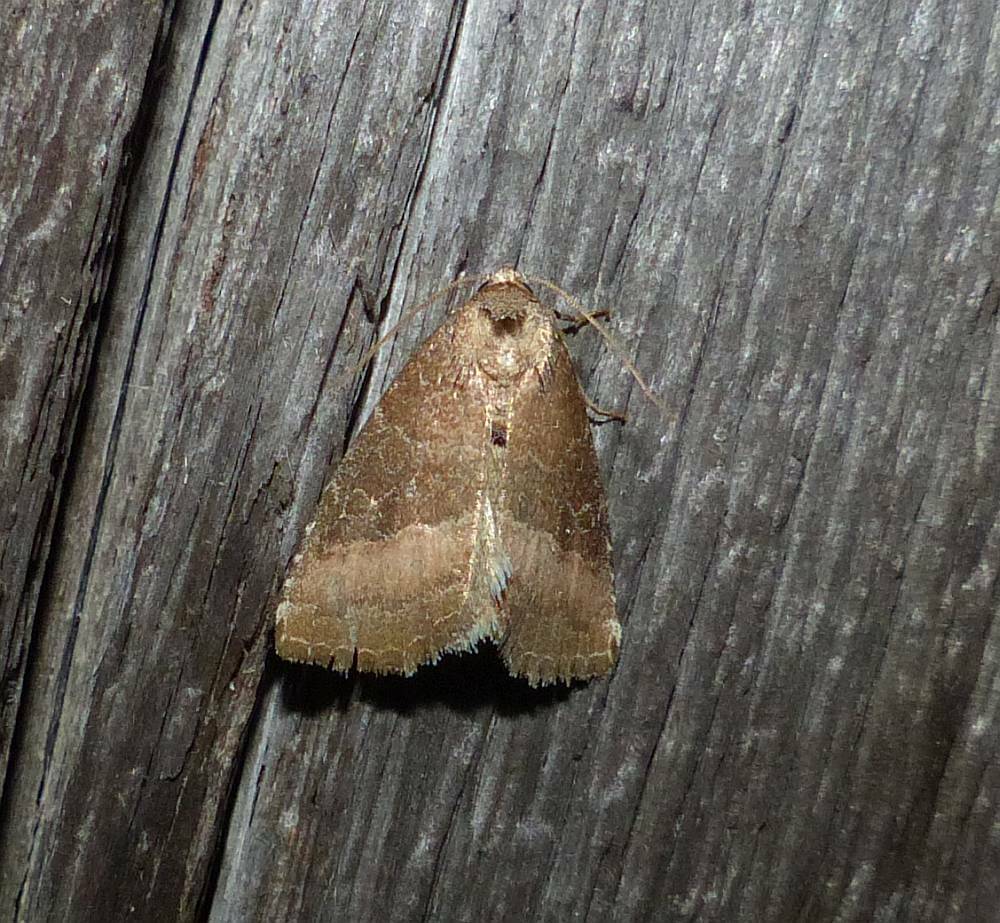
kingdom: Animalia
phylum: Arthropoda
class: Insecta
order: Lepidoptera
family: Noctuidae
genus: Ogdoconta
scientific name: Ogdoconta cinereola
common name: Common pinkband
